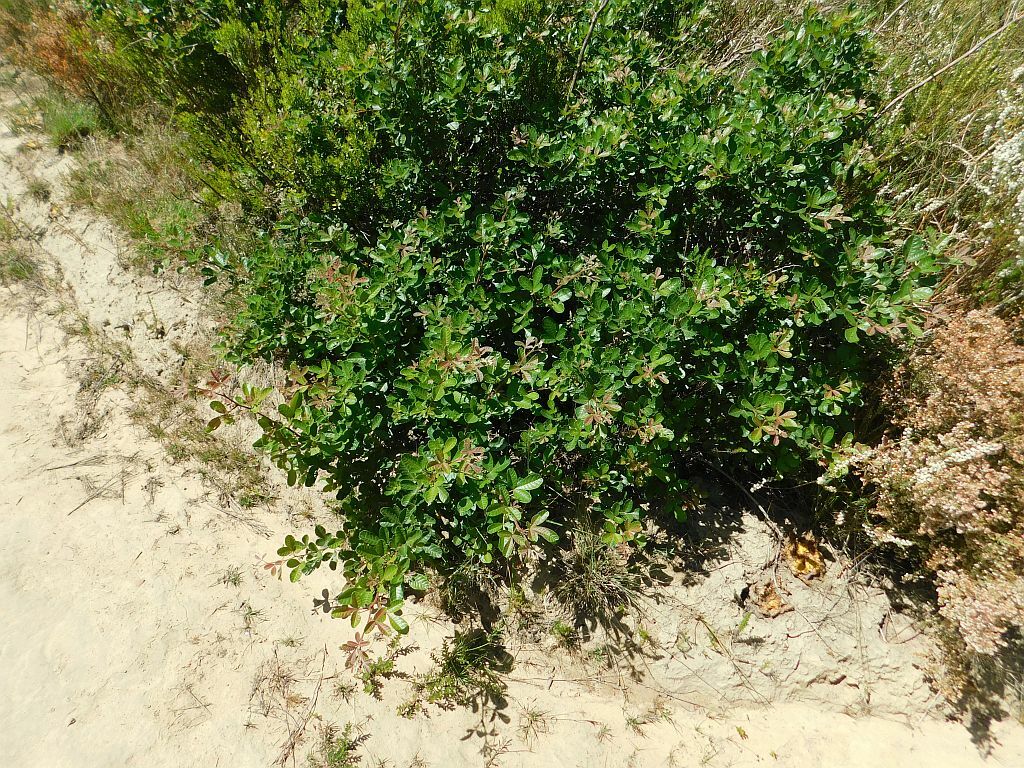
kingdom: Plantae
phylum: Tracheophyta
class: Magnoliopsida
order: Sapindales
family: Anacardiaceae
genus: Searsia
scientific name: Searsia rehmanniana
